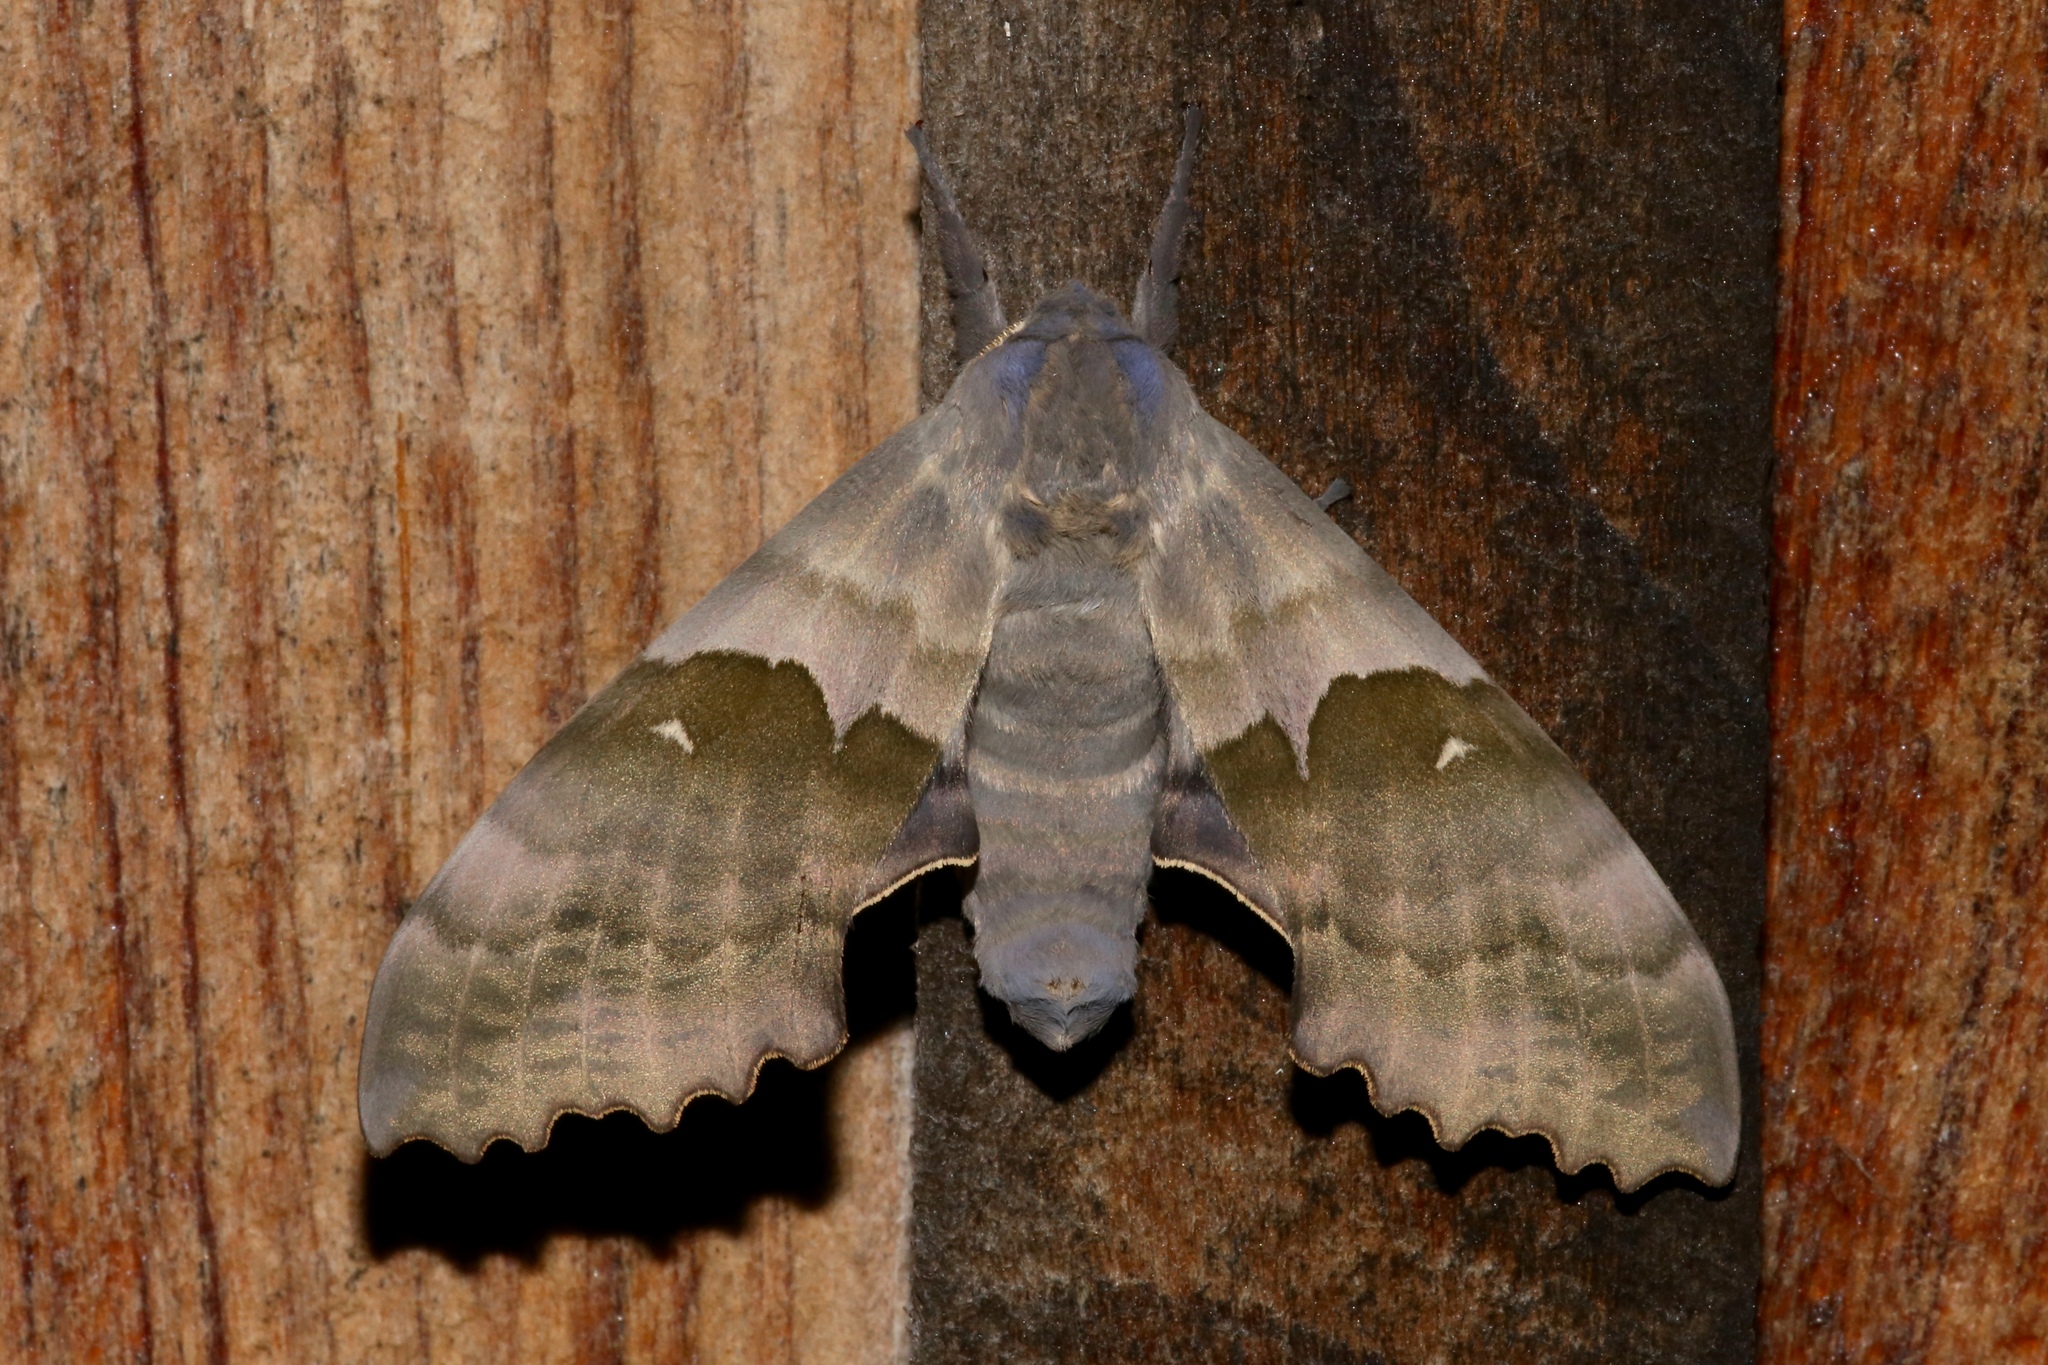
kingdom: Animalia
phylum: Arthropoda
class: Insecta
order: Lepidoptera
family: Sphingidae
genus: Pachysphinx
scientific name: Pachysphinx modesta
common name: Big poplar sphinx
